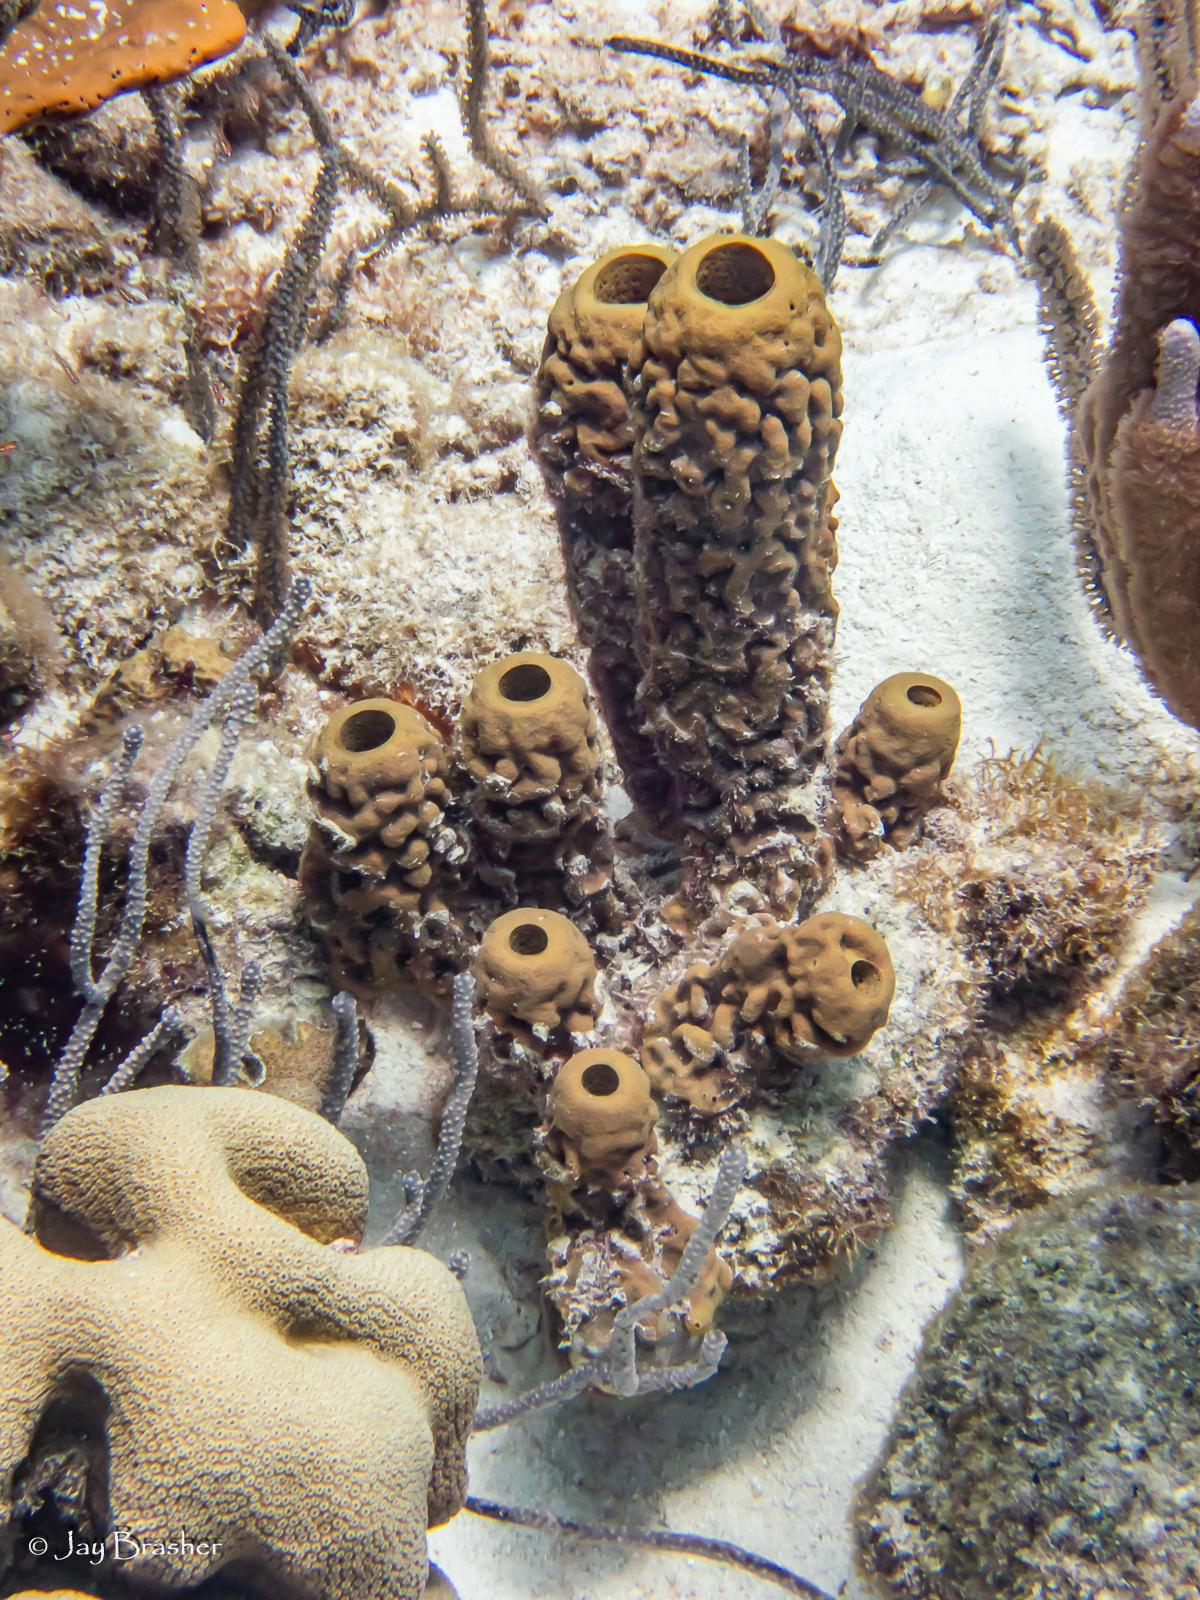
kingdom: Animalia
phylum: Porifera
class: Demospongiae
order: Verongiida
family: Aplysinidae
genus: Aplysina
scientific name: Aplysina archeri
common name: Stove-pipe sponge
